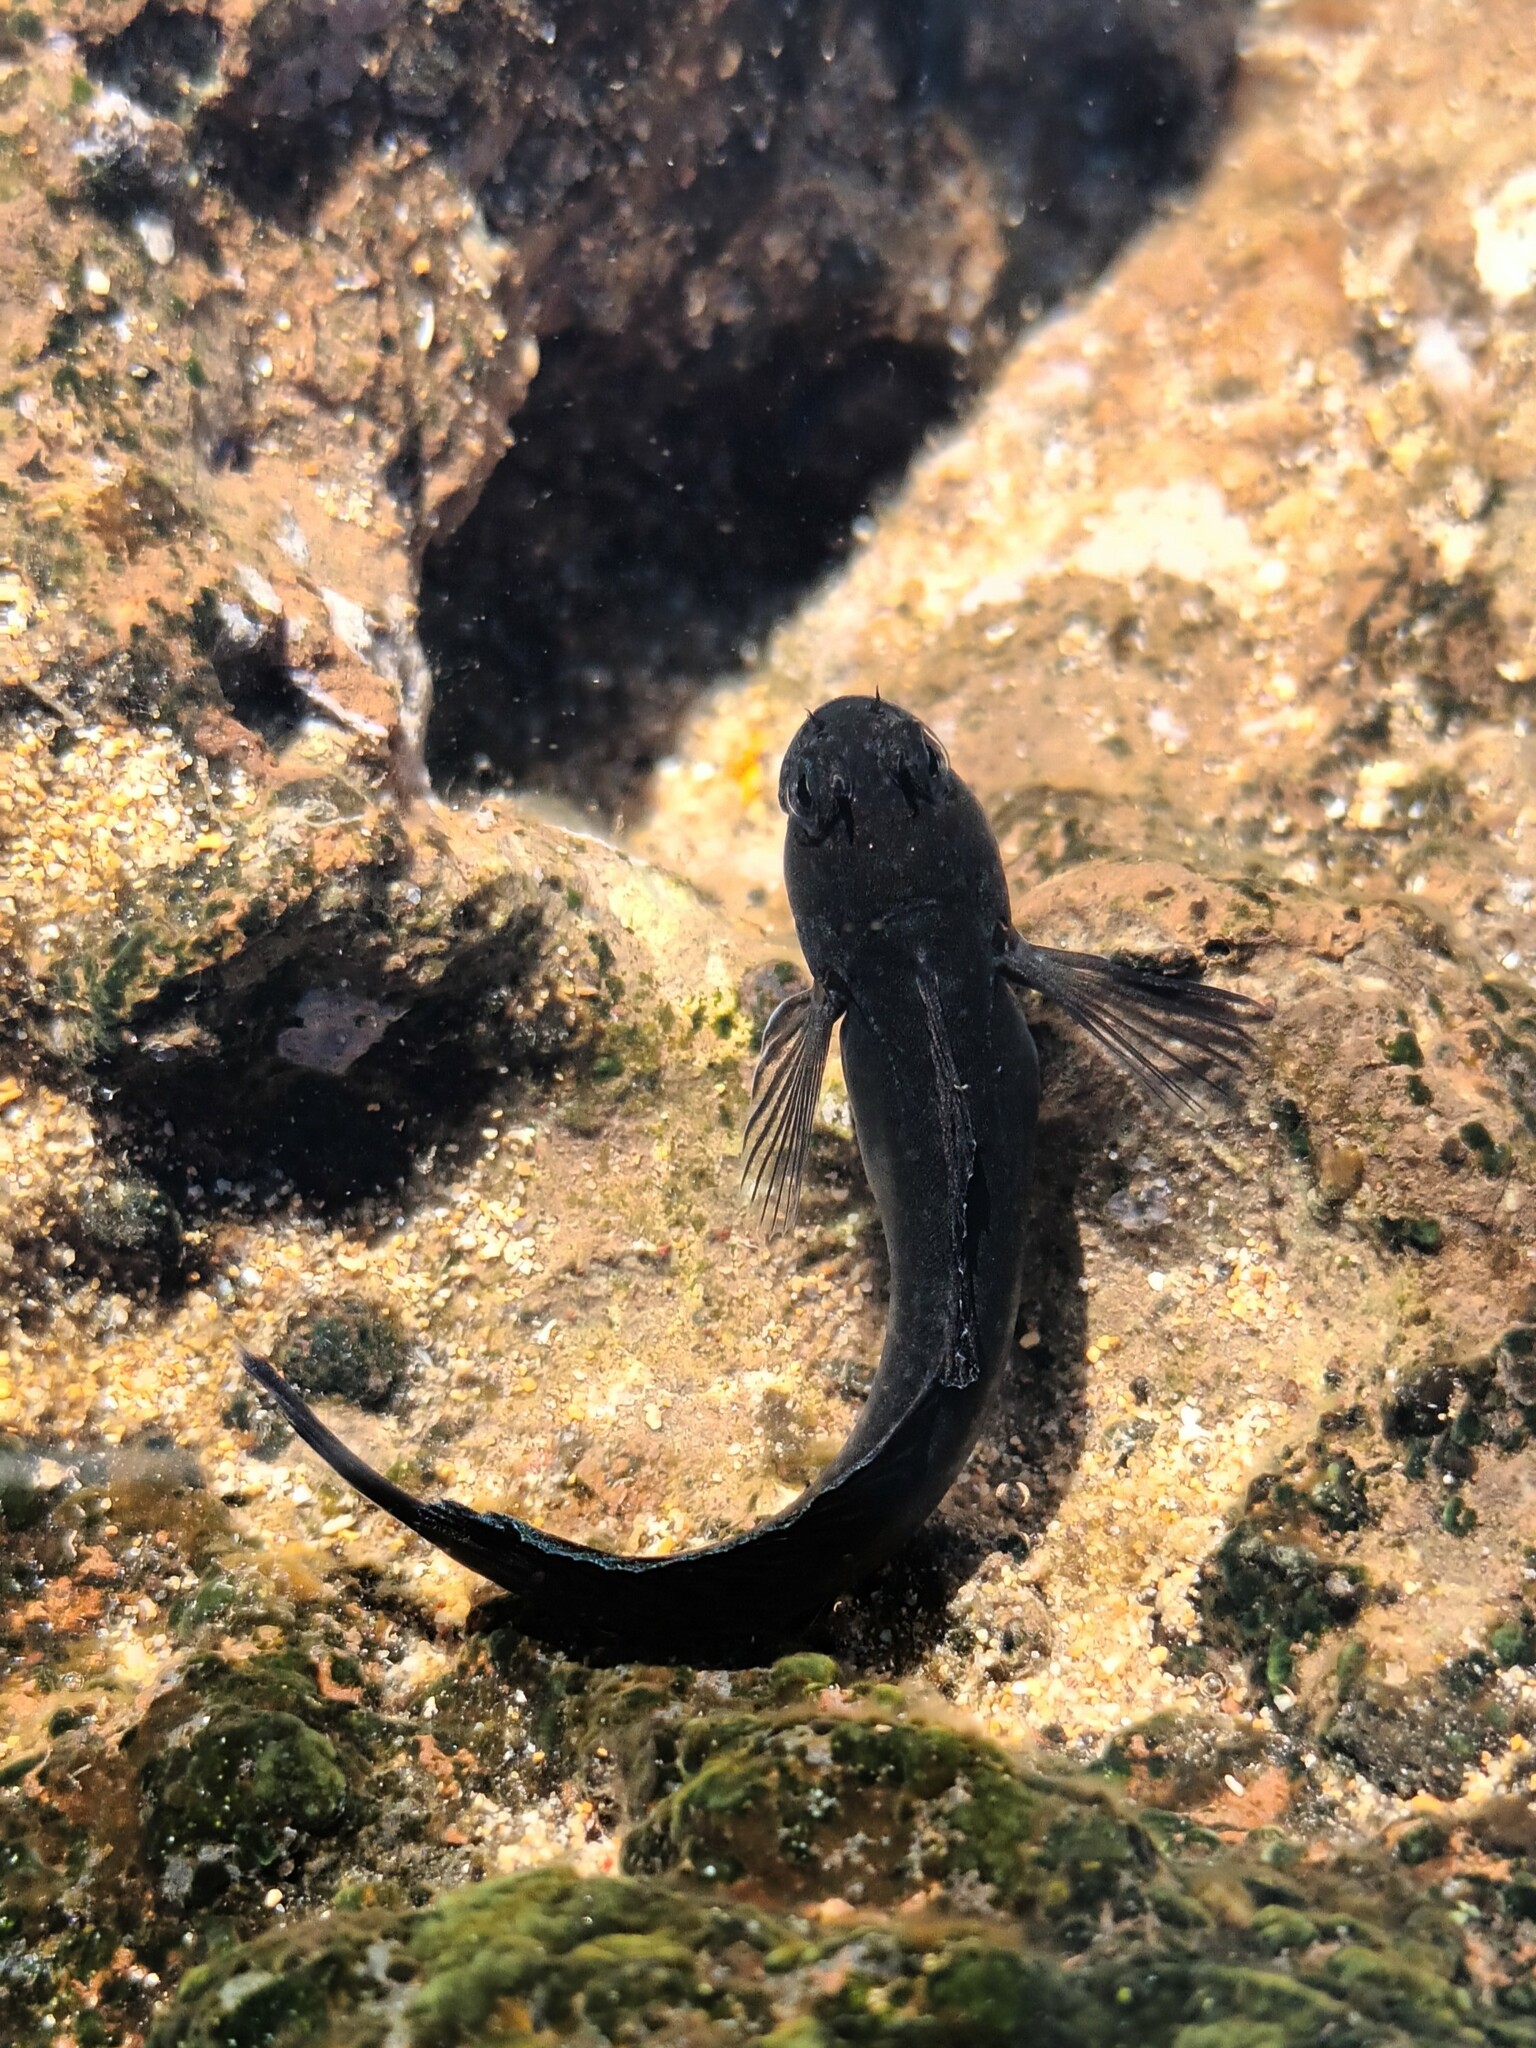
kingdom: Animalia
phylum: Chordata
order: Perciformes
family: Blenniidae
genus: Istiblennius
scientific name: Istiblennius zebra
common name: Zebra blenny
